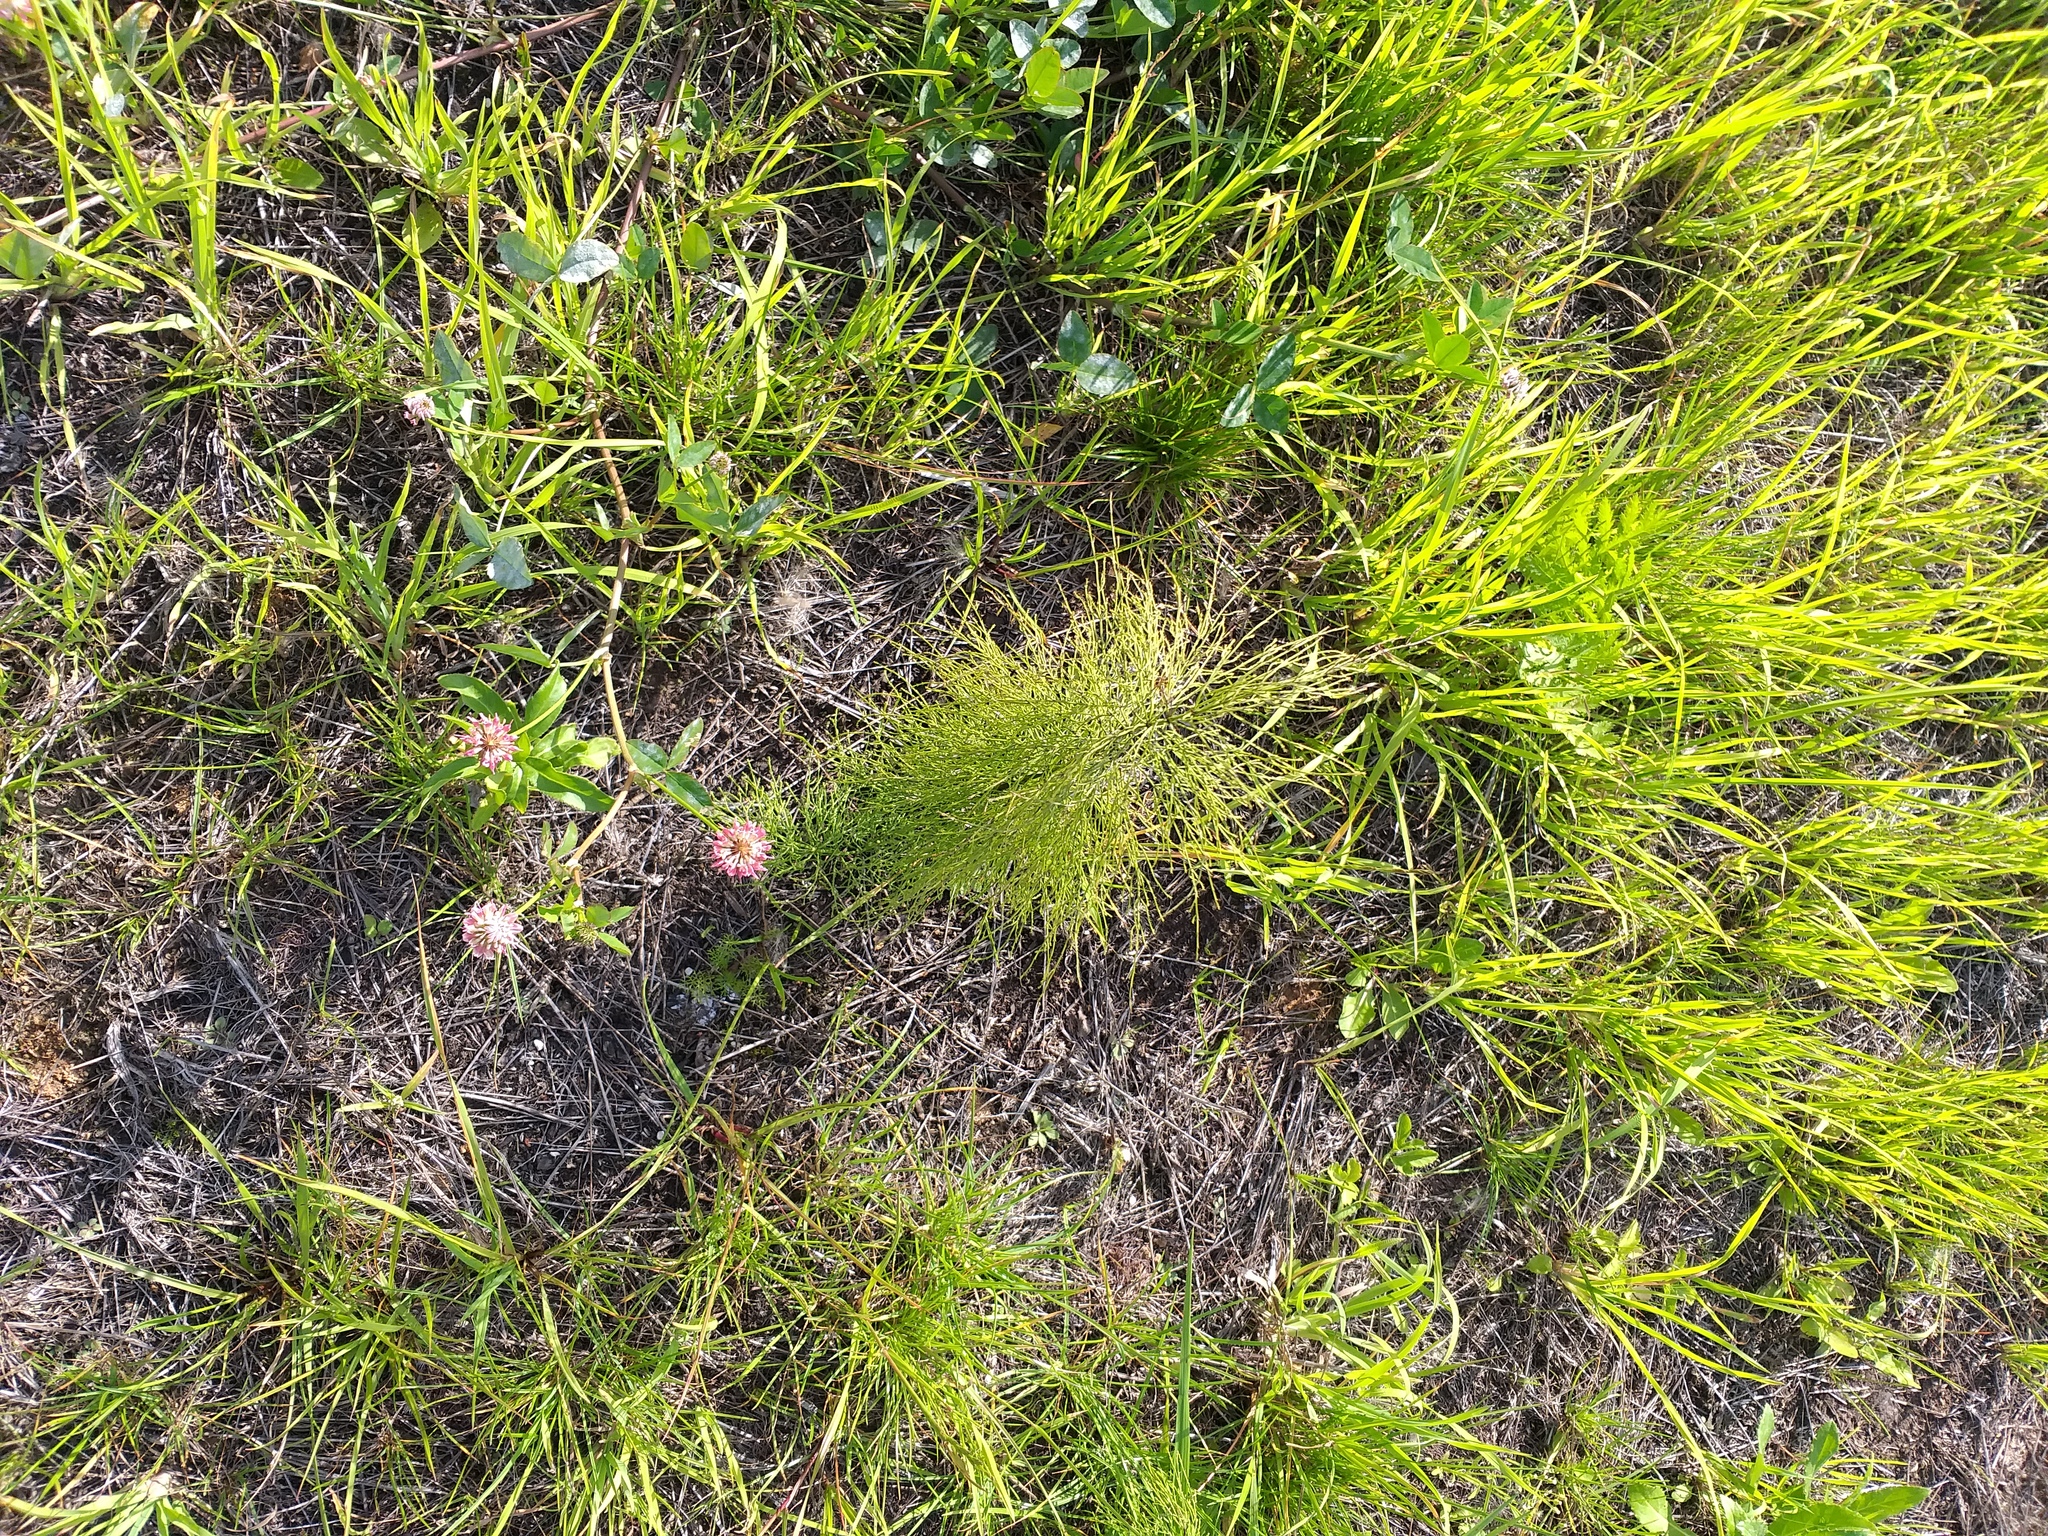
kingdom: Plantae
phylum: Tracheophyta
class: Polypodiopsida
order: Equisetales
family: Equisetaceae
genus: Equisetum
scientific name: Equisetum sylvaticum
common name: Wood horsetail
